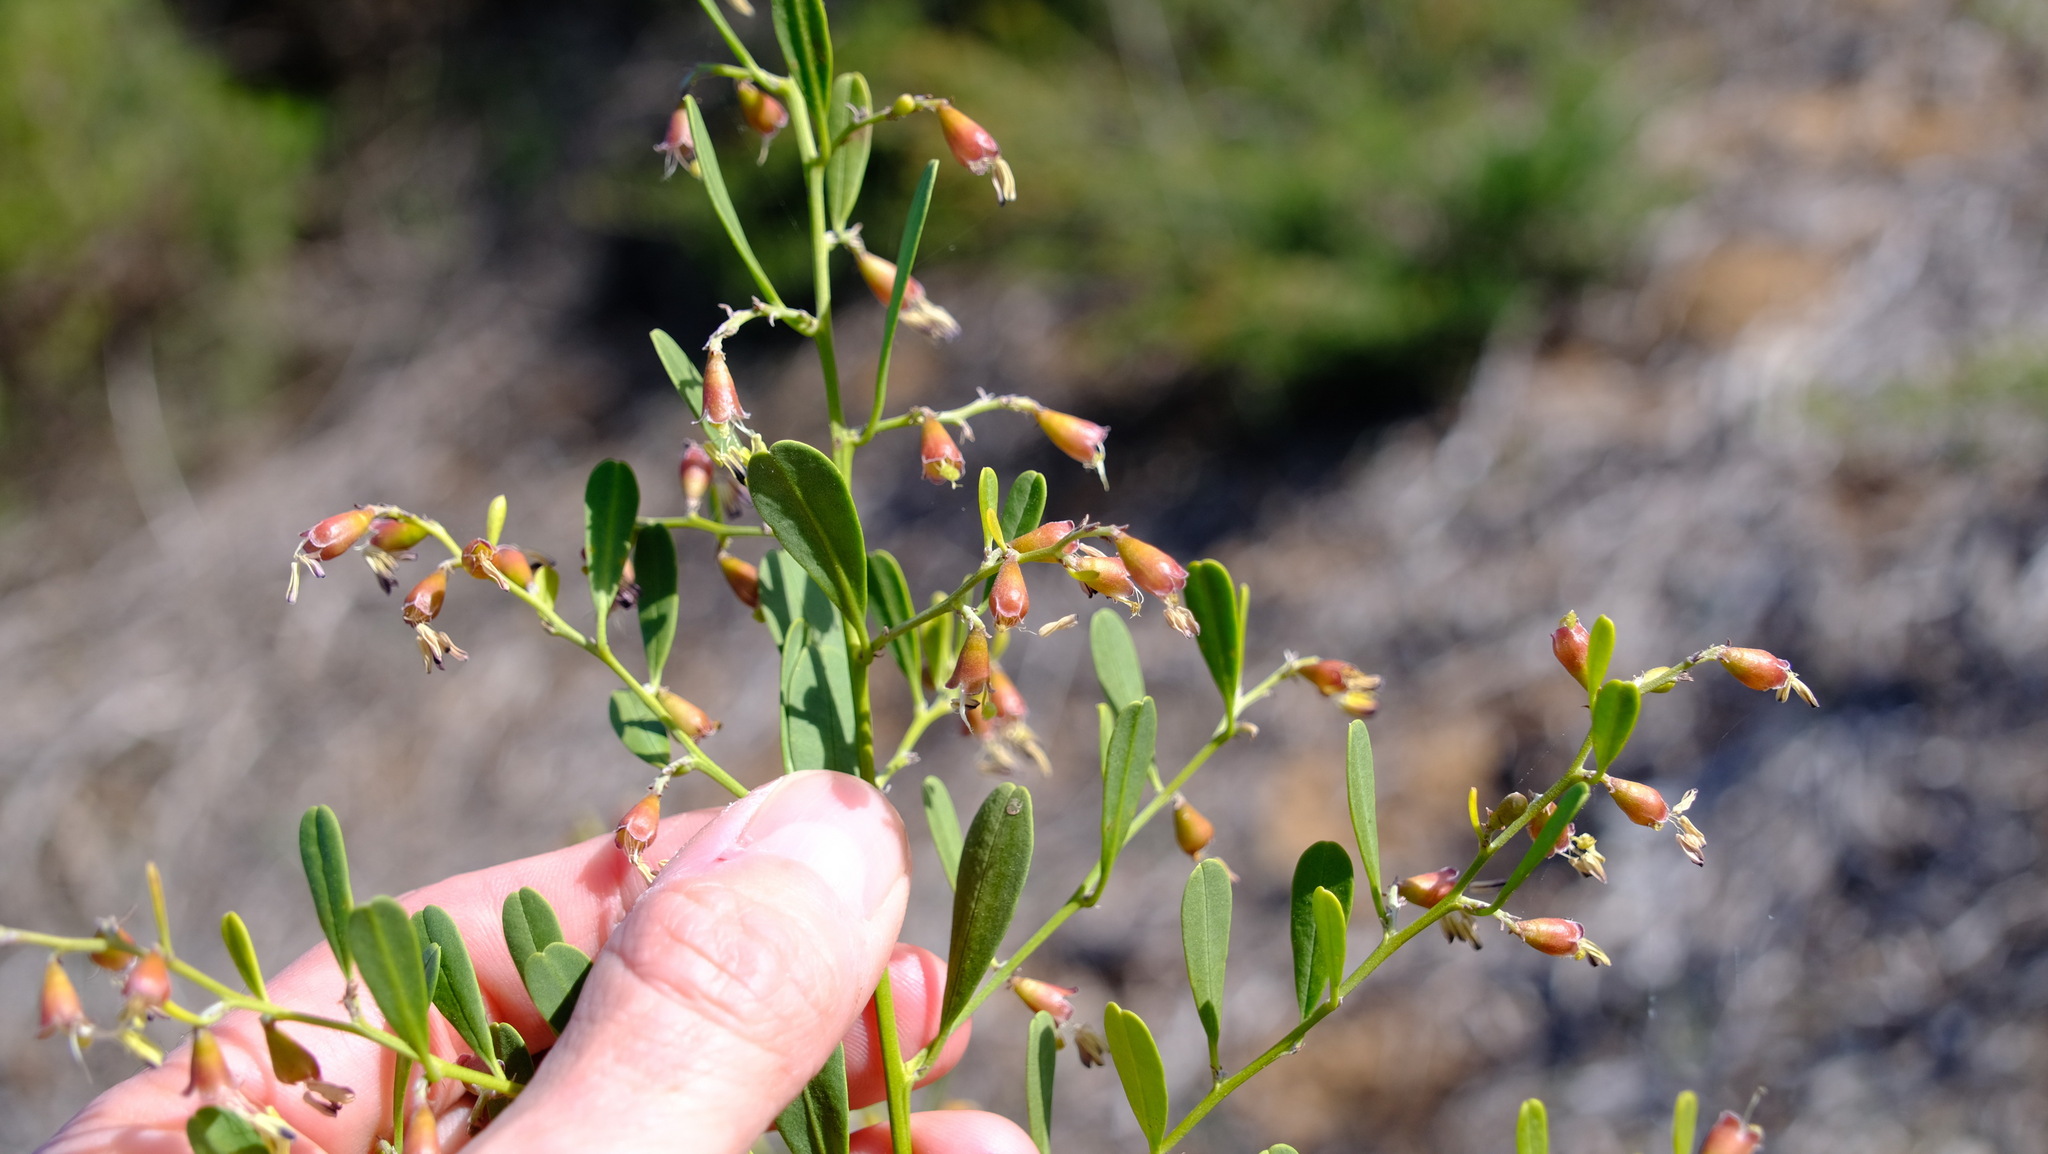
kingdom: Plantae
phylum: Tracheophyta
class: Magnoliopsida
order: Fabales
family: Surianaceae
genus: Stylobasium
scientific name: Stylobasium spathulatum
